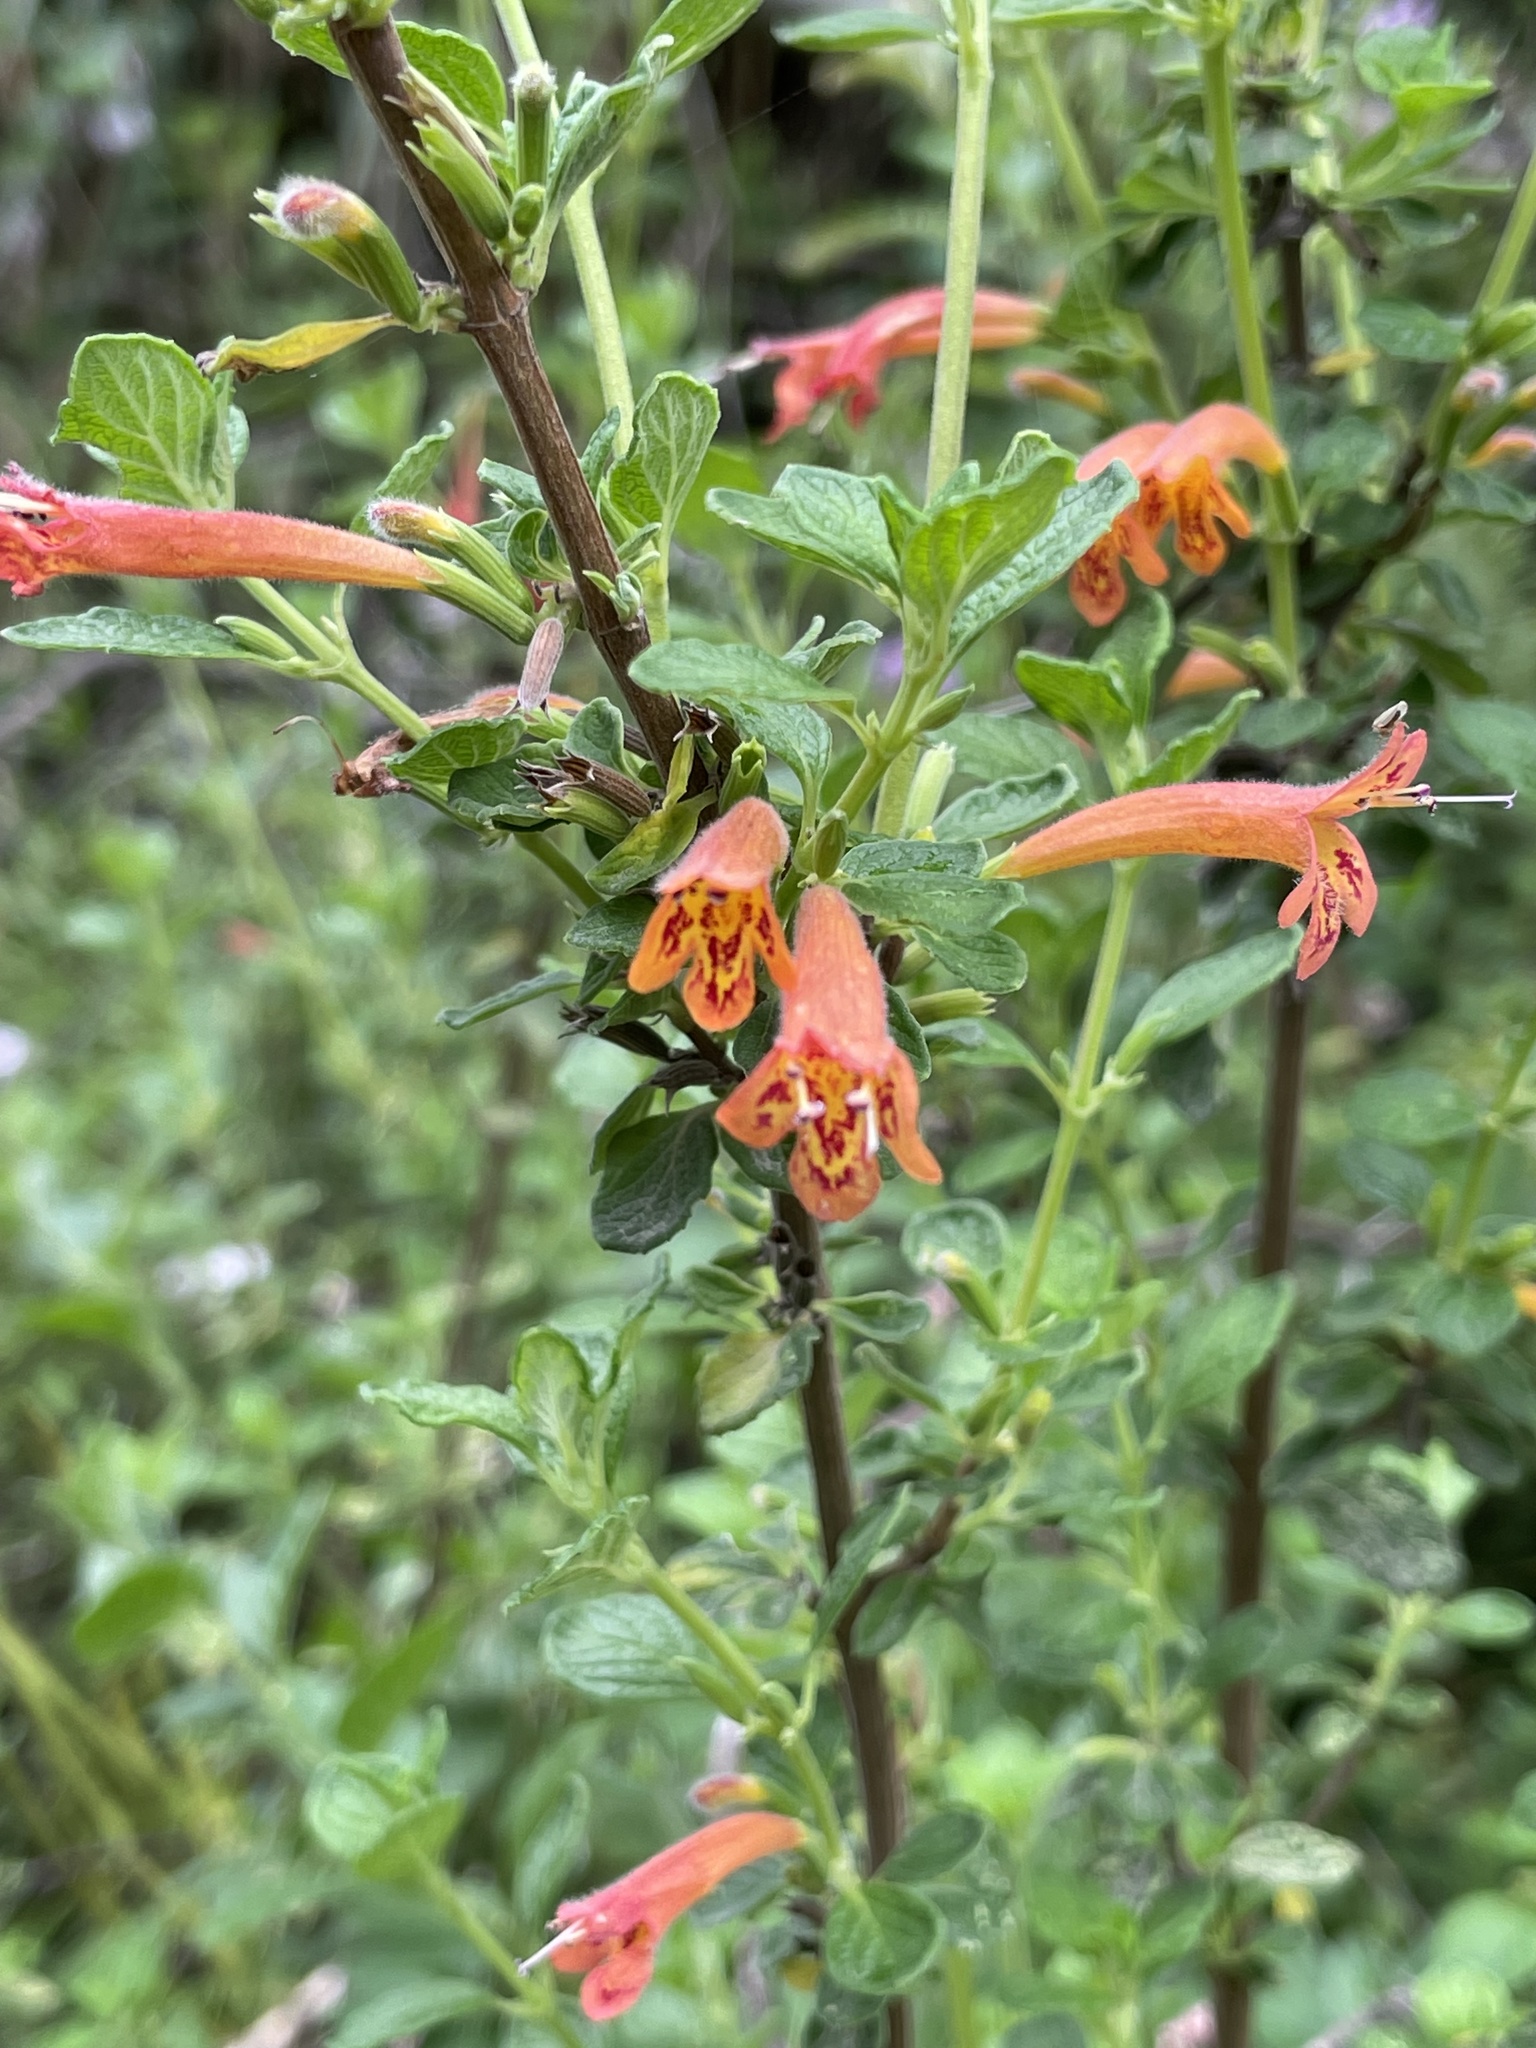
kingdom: Plantae
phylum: Tracheophyta
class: Magnoliopsida
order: Lamiales
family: Lamiaceae
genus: Clinopodium
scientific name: Clinopodium tomentosum
